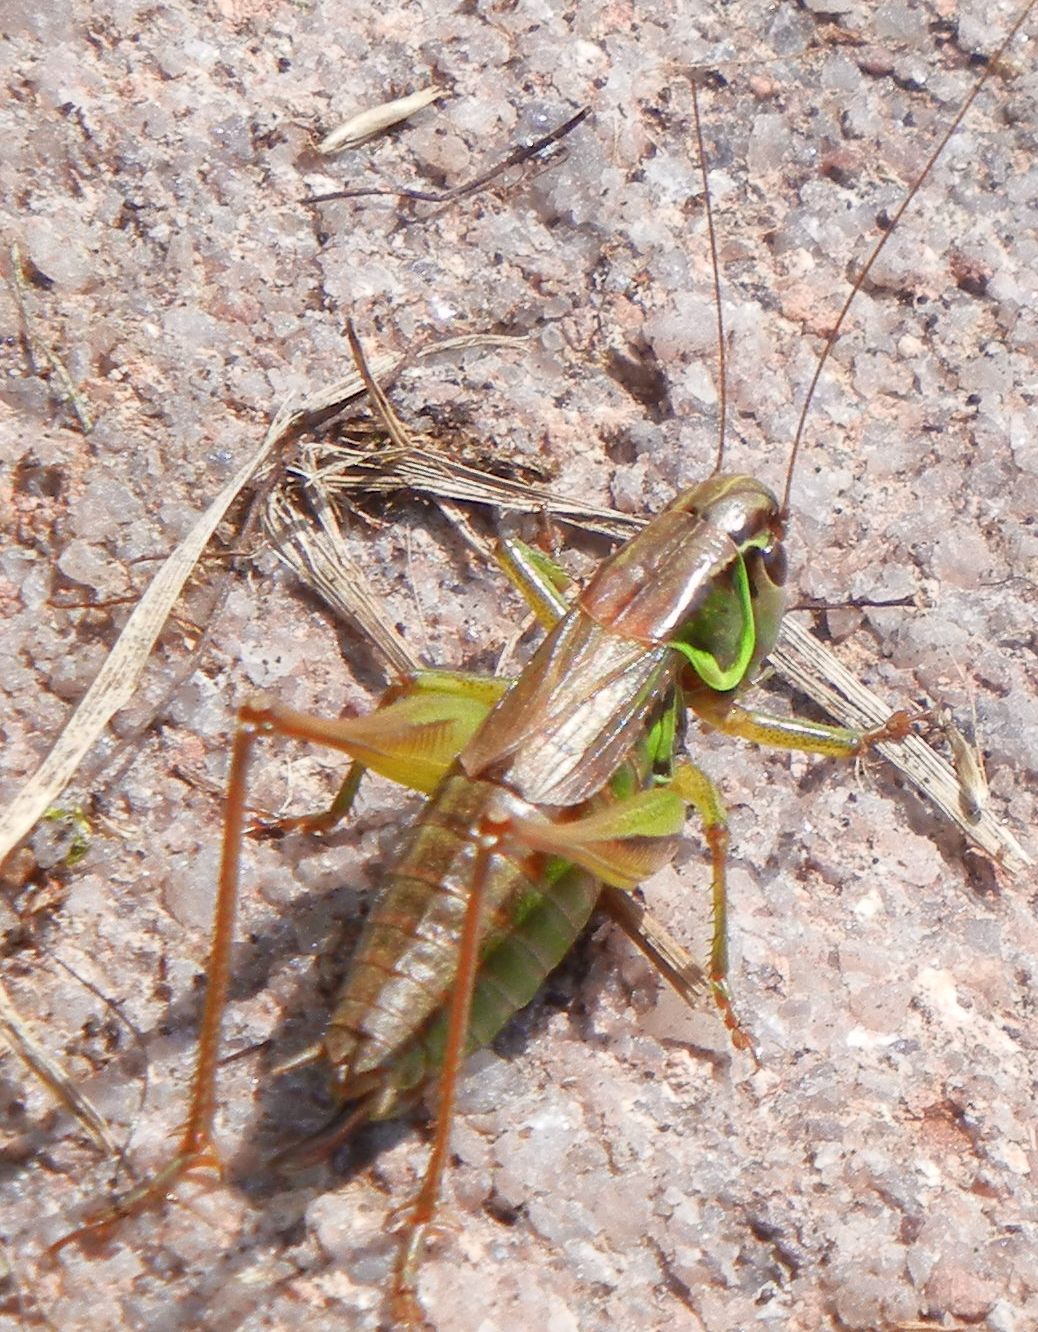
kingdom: Animalia
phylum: Arthropoda
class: Insecta
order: Orthoptera
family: Tettigoniidae
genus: Roeseliana
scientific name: Roeseliana roeselii
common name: Roesel's bush cricket
